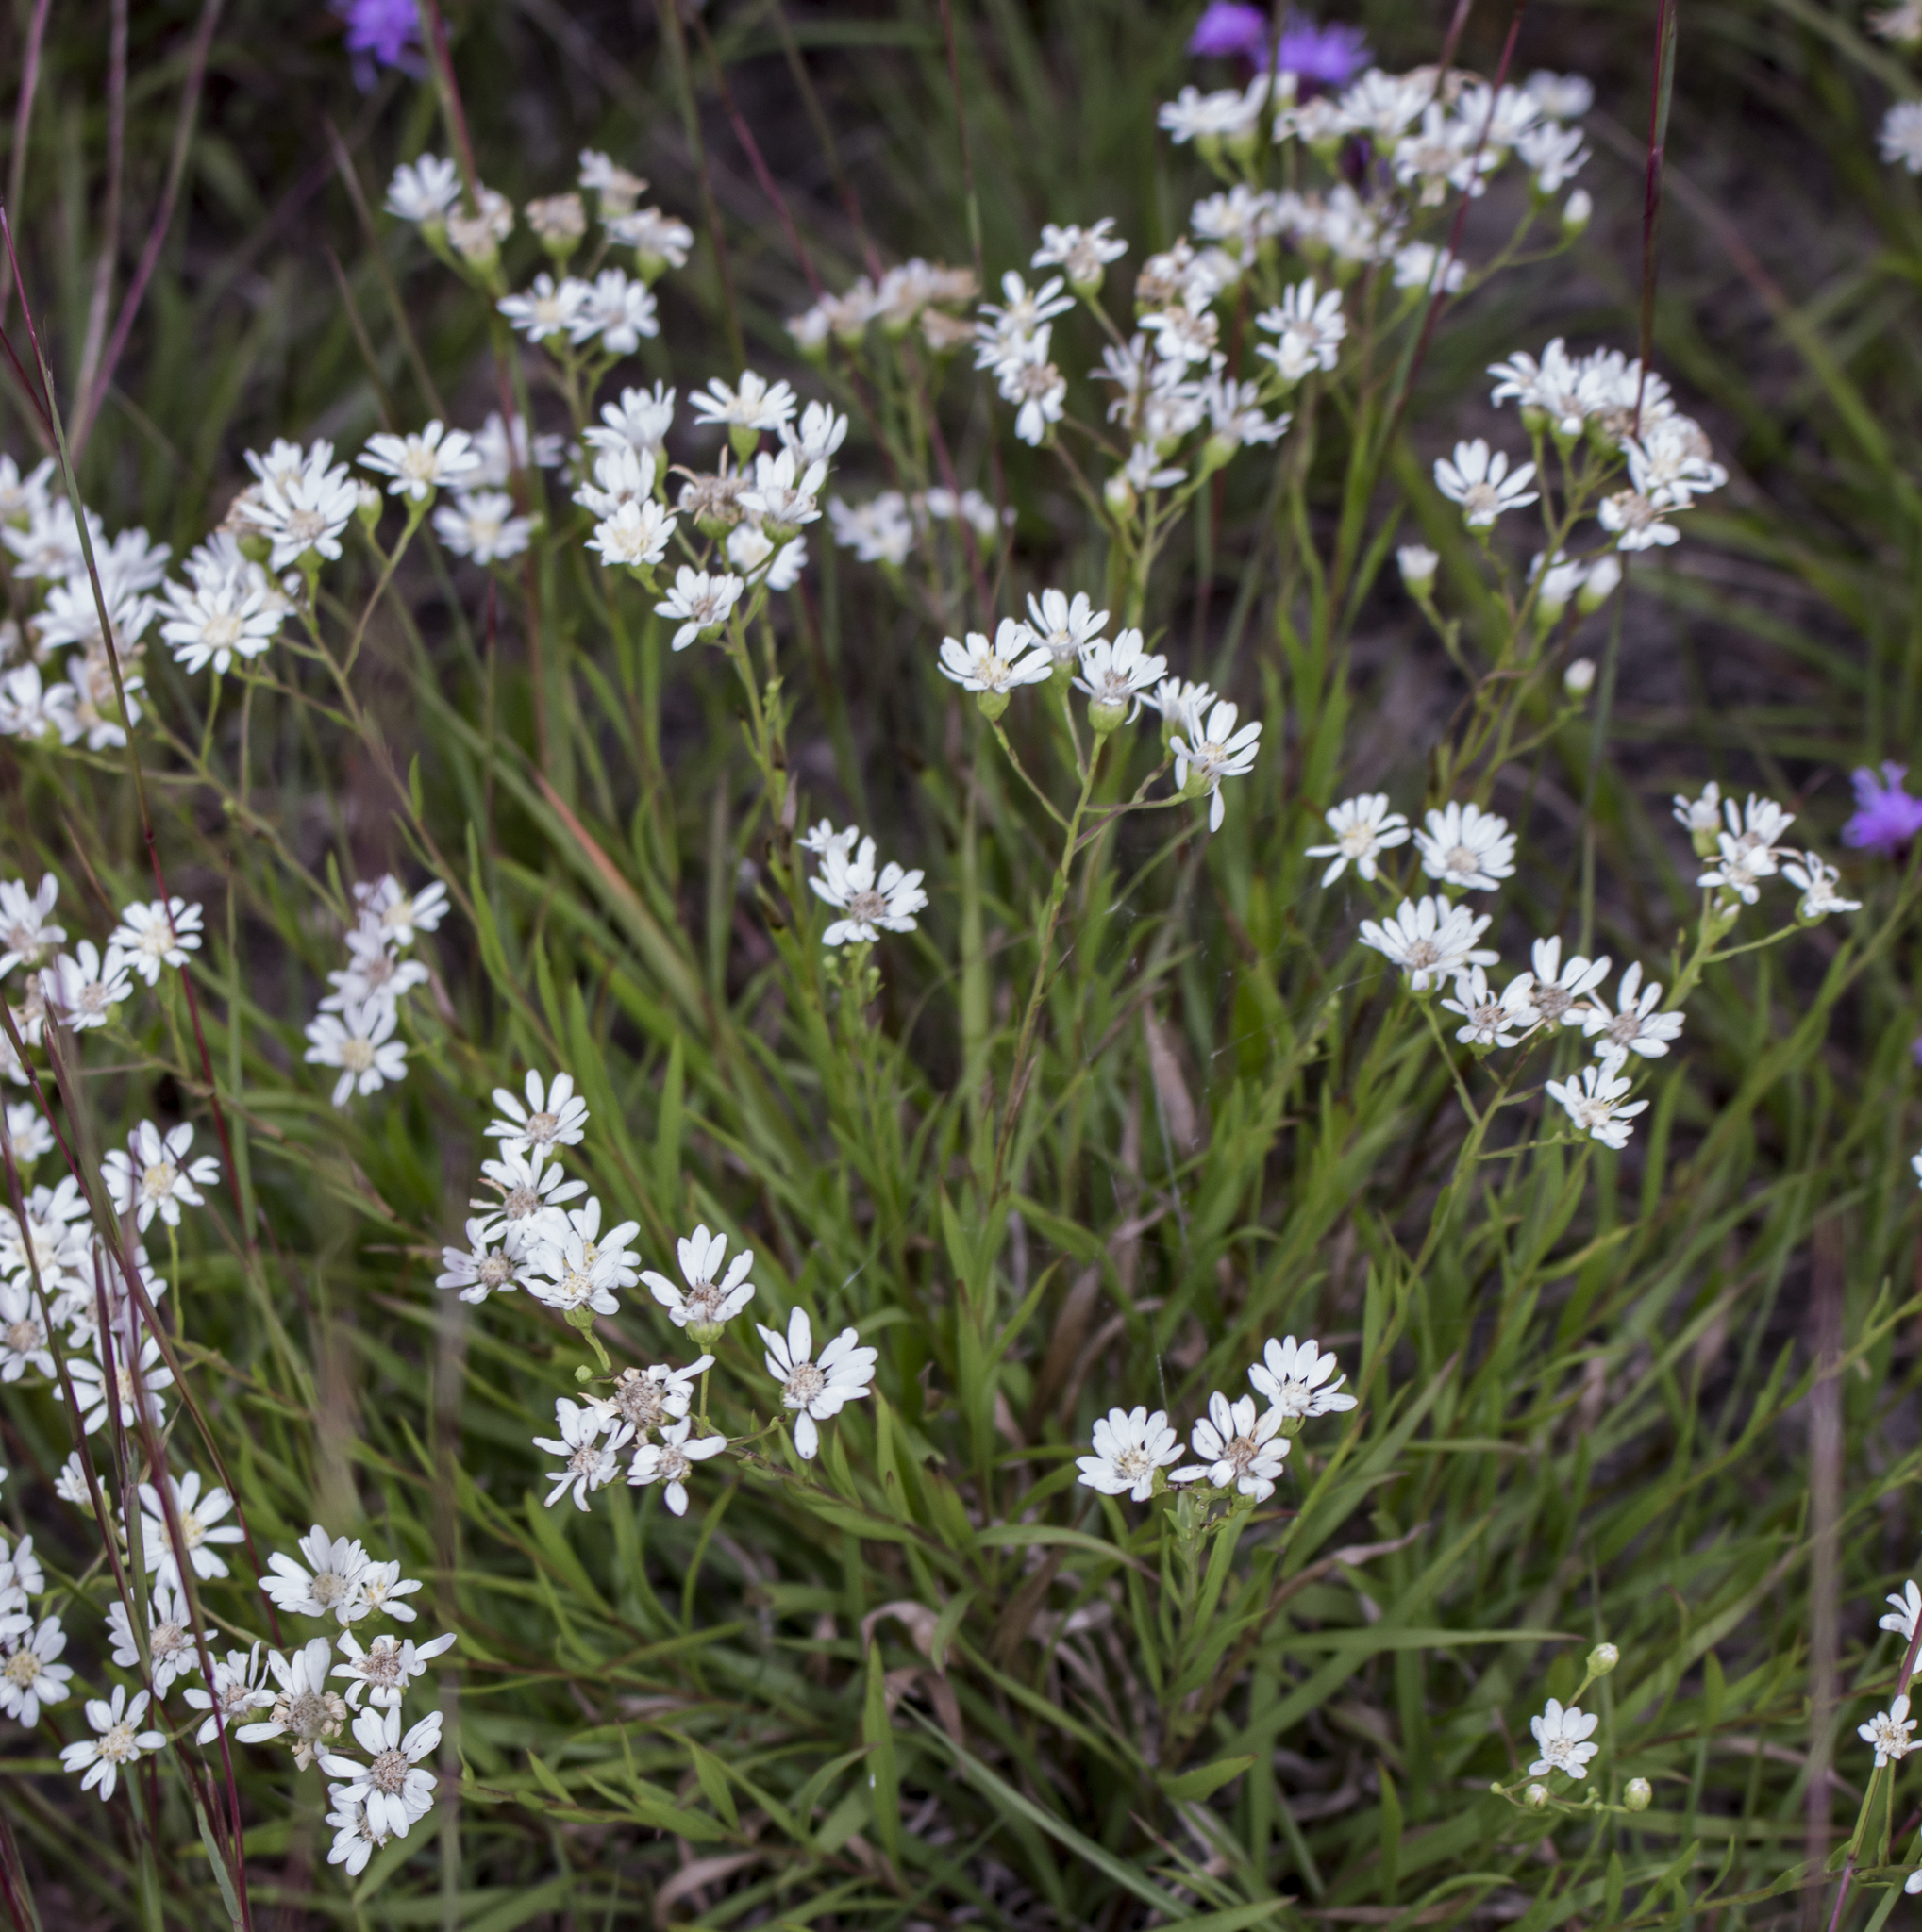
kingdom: Plantae
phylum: Tracheophyta
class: Magnoliopsida
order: Asterales
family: Asteraceae
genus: Solidago
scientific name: Solidago ptarmicoides
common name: White flat-top goldenrod
